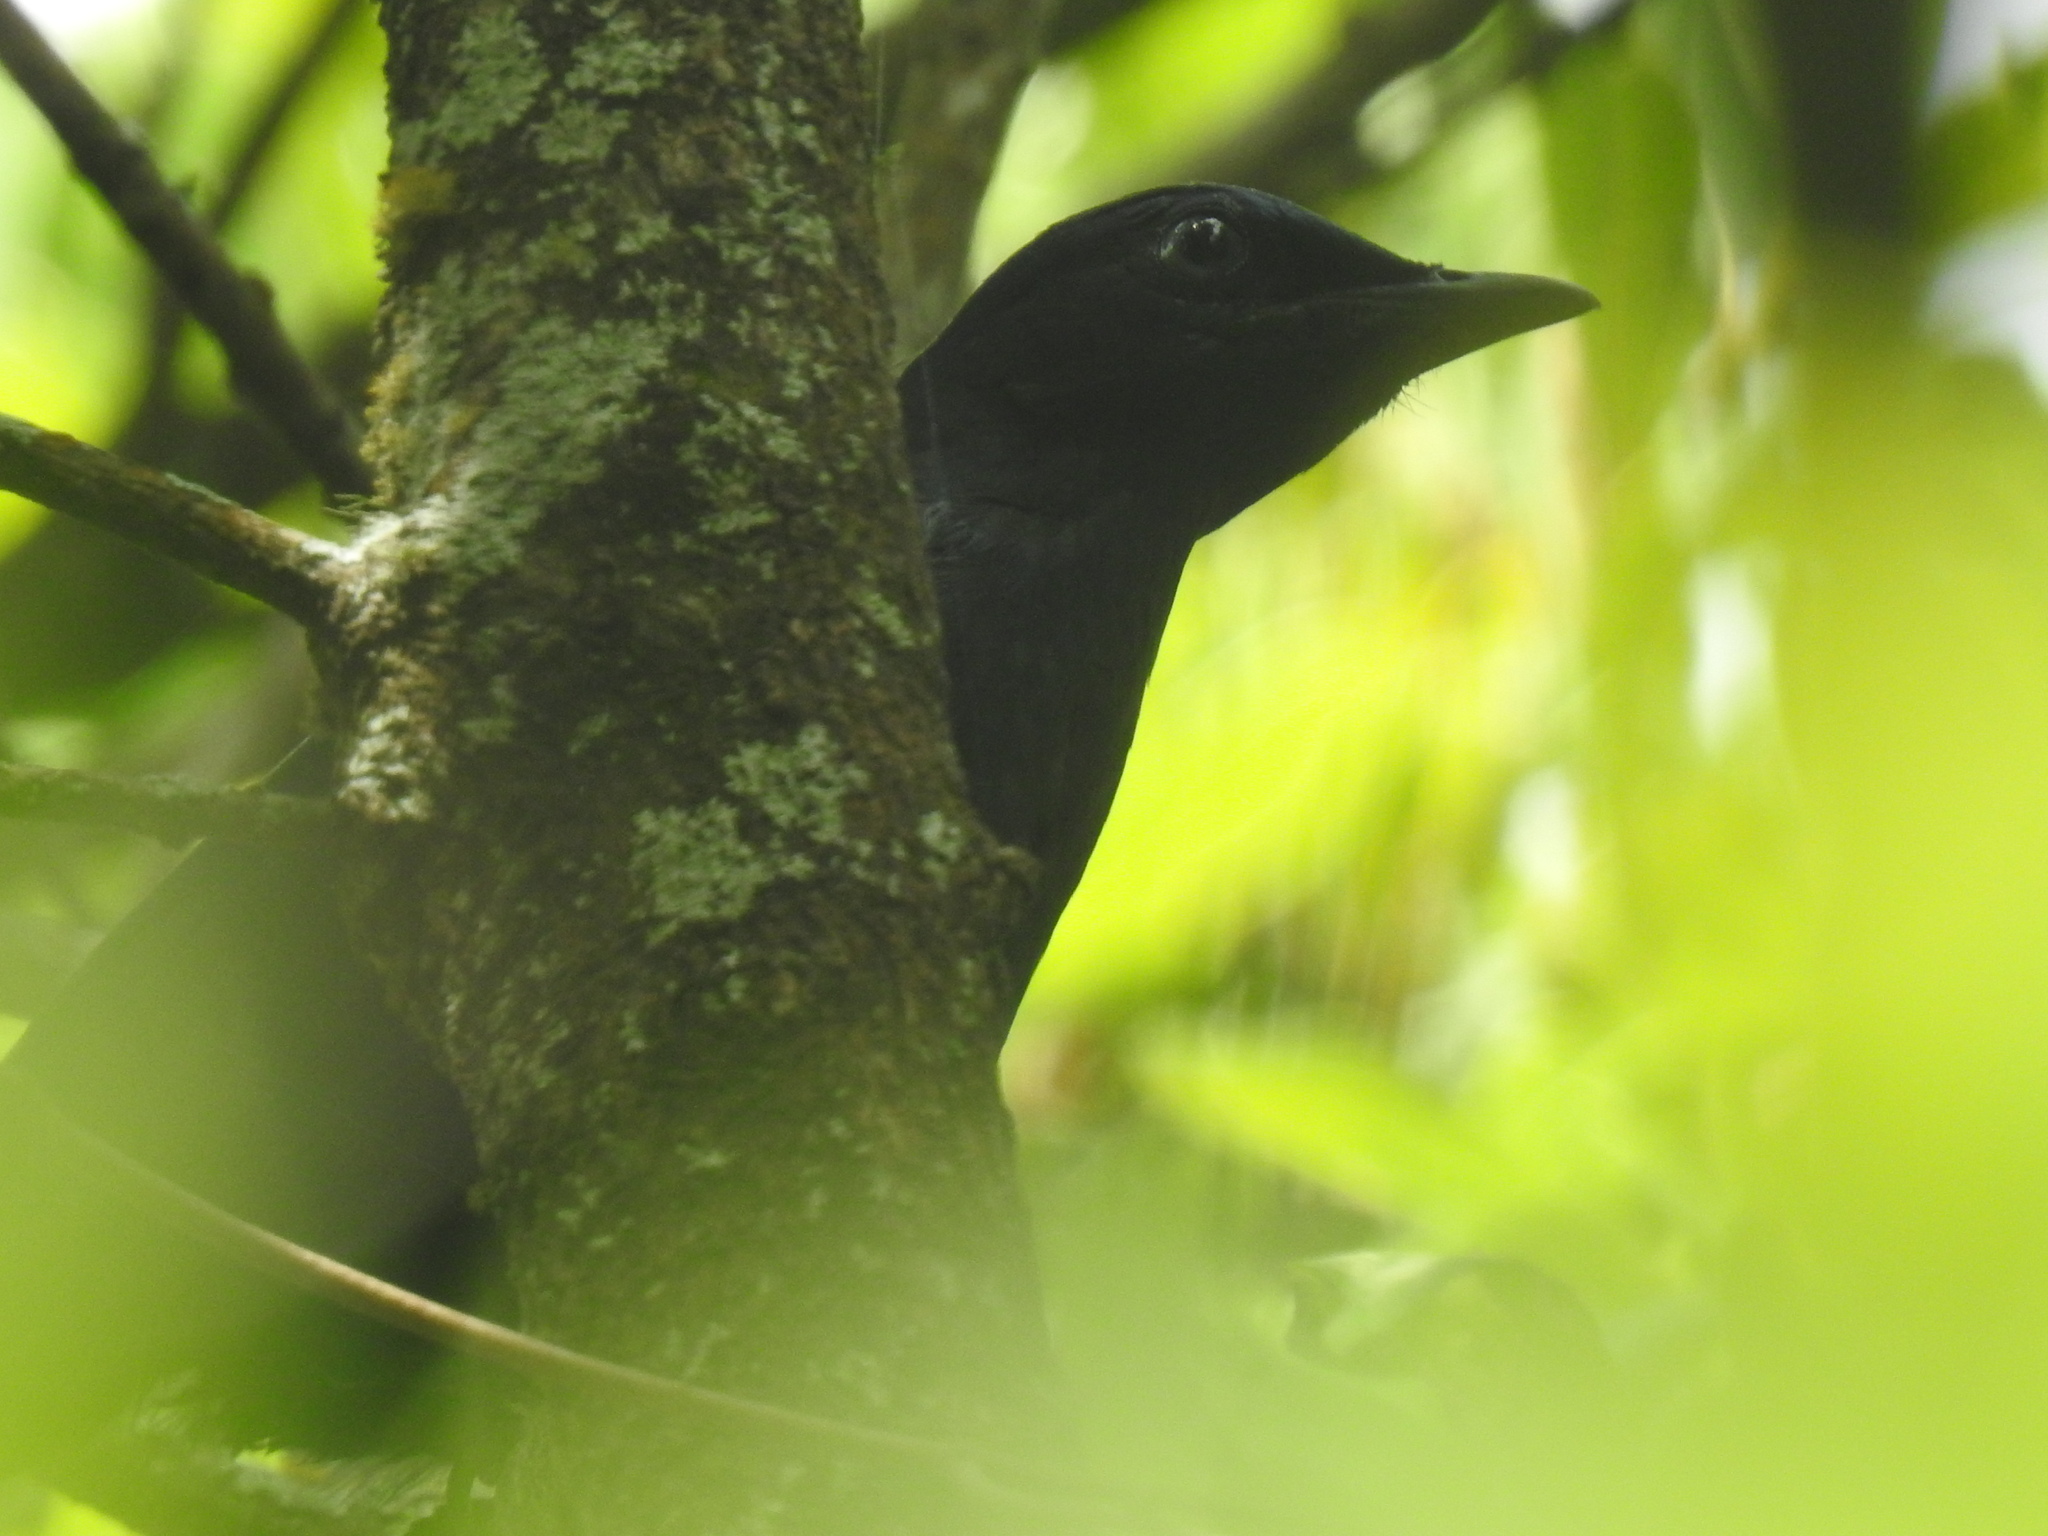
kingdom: Animalia
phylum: Chordata
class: Aves
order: Passeriformes
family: Sturnidae
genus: Onychognathus
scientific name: Onychognathus morio
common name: Red-winged starling
